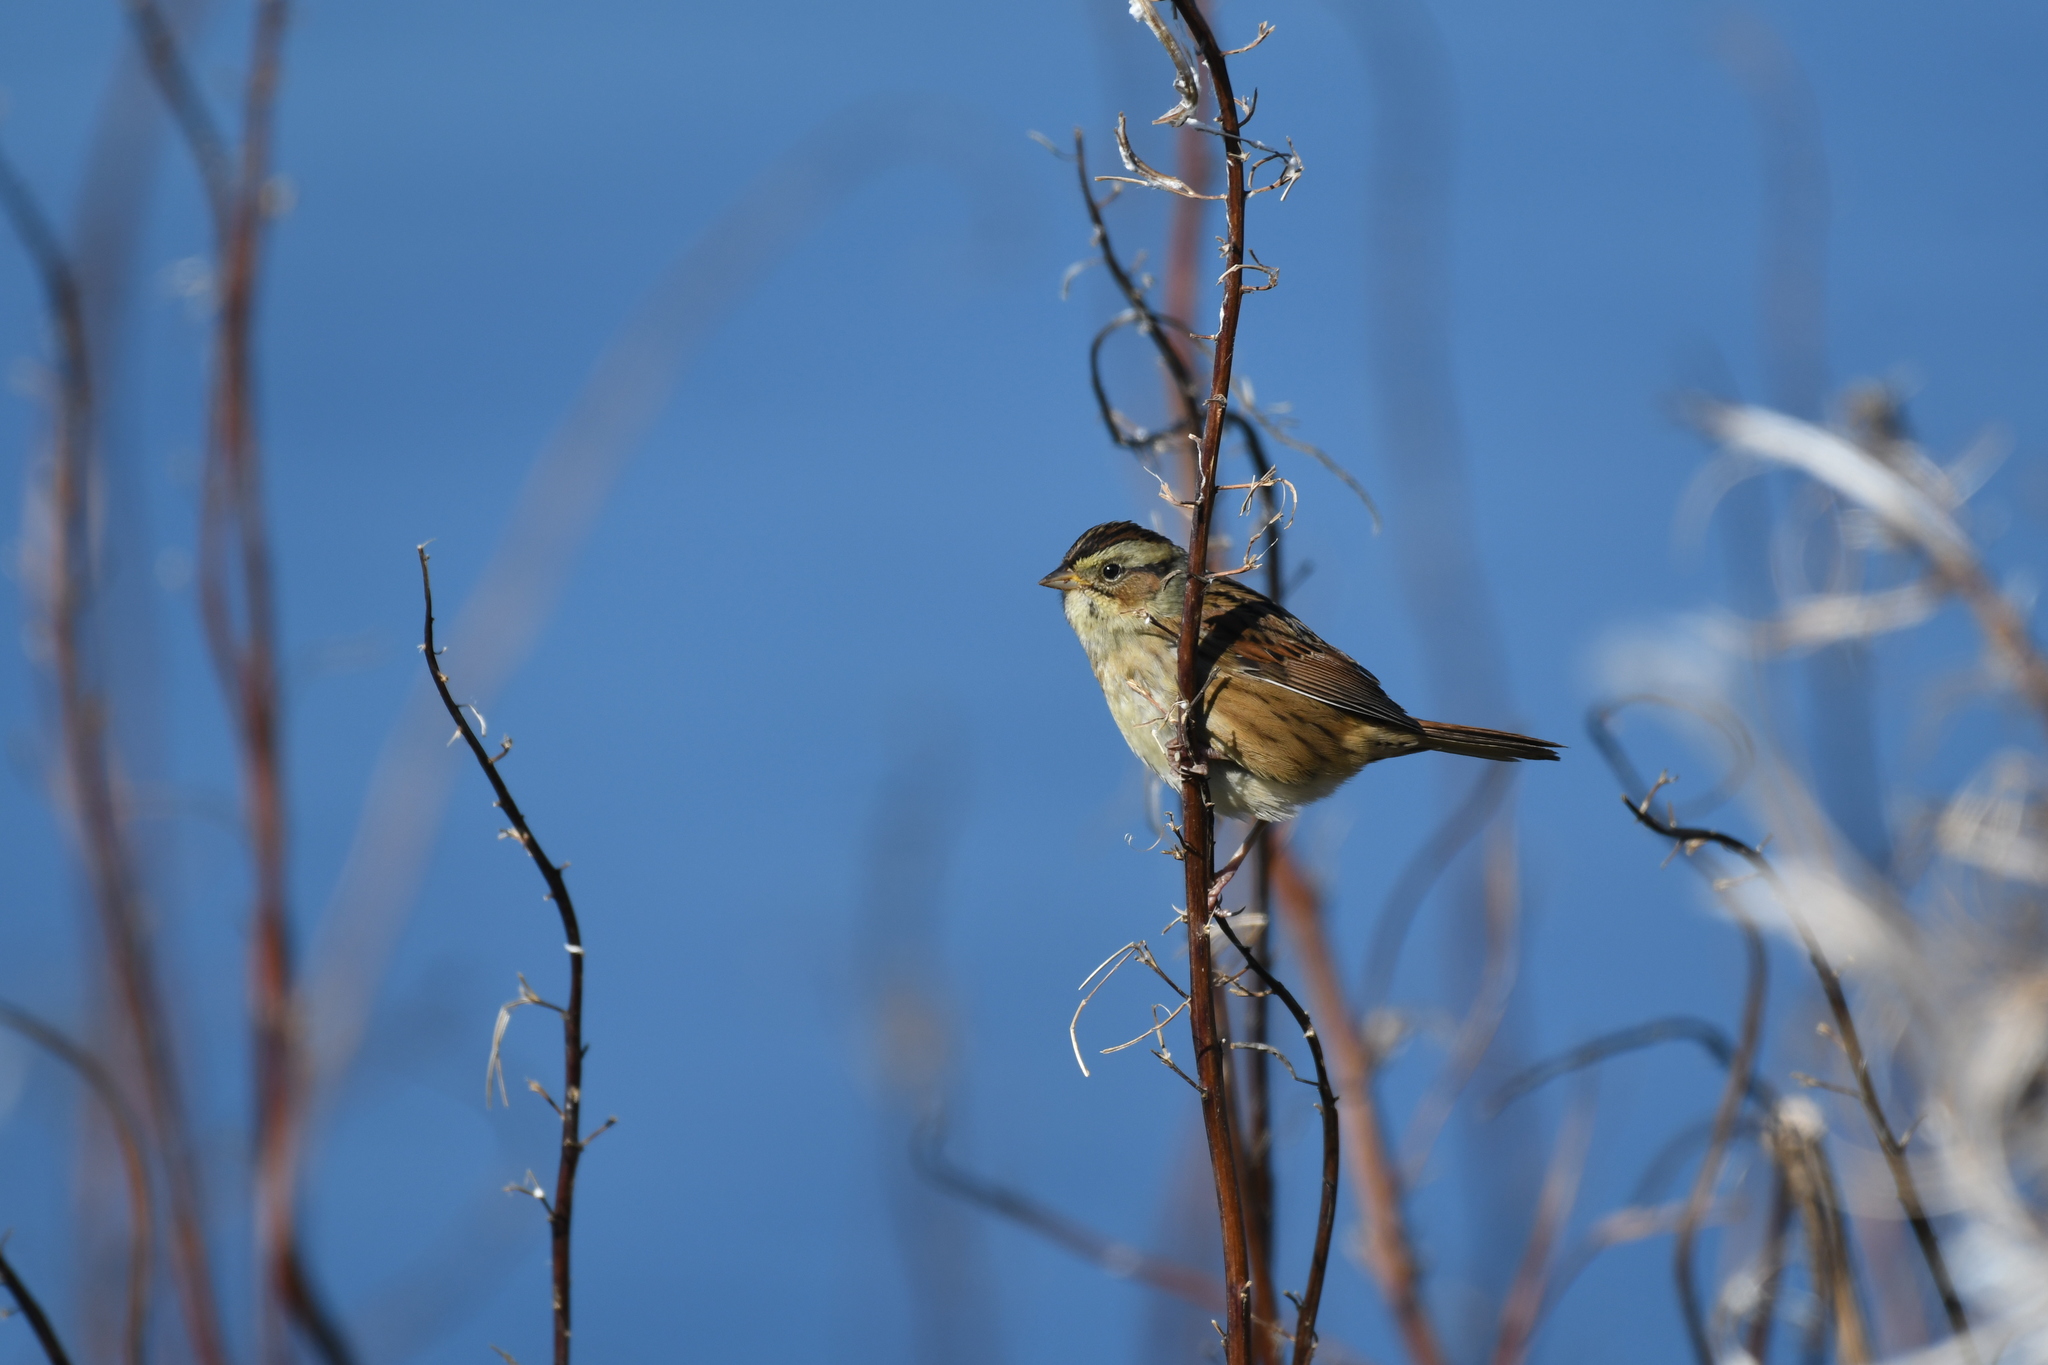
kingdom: Animalia
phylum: Chordata
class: Aves
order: Passeriformes
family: Passerellidae
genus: Melospiza
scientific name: Melospiza georgiana
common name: Swamp sparrow
